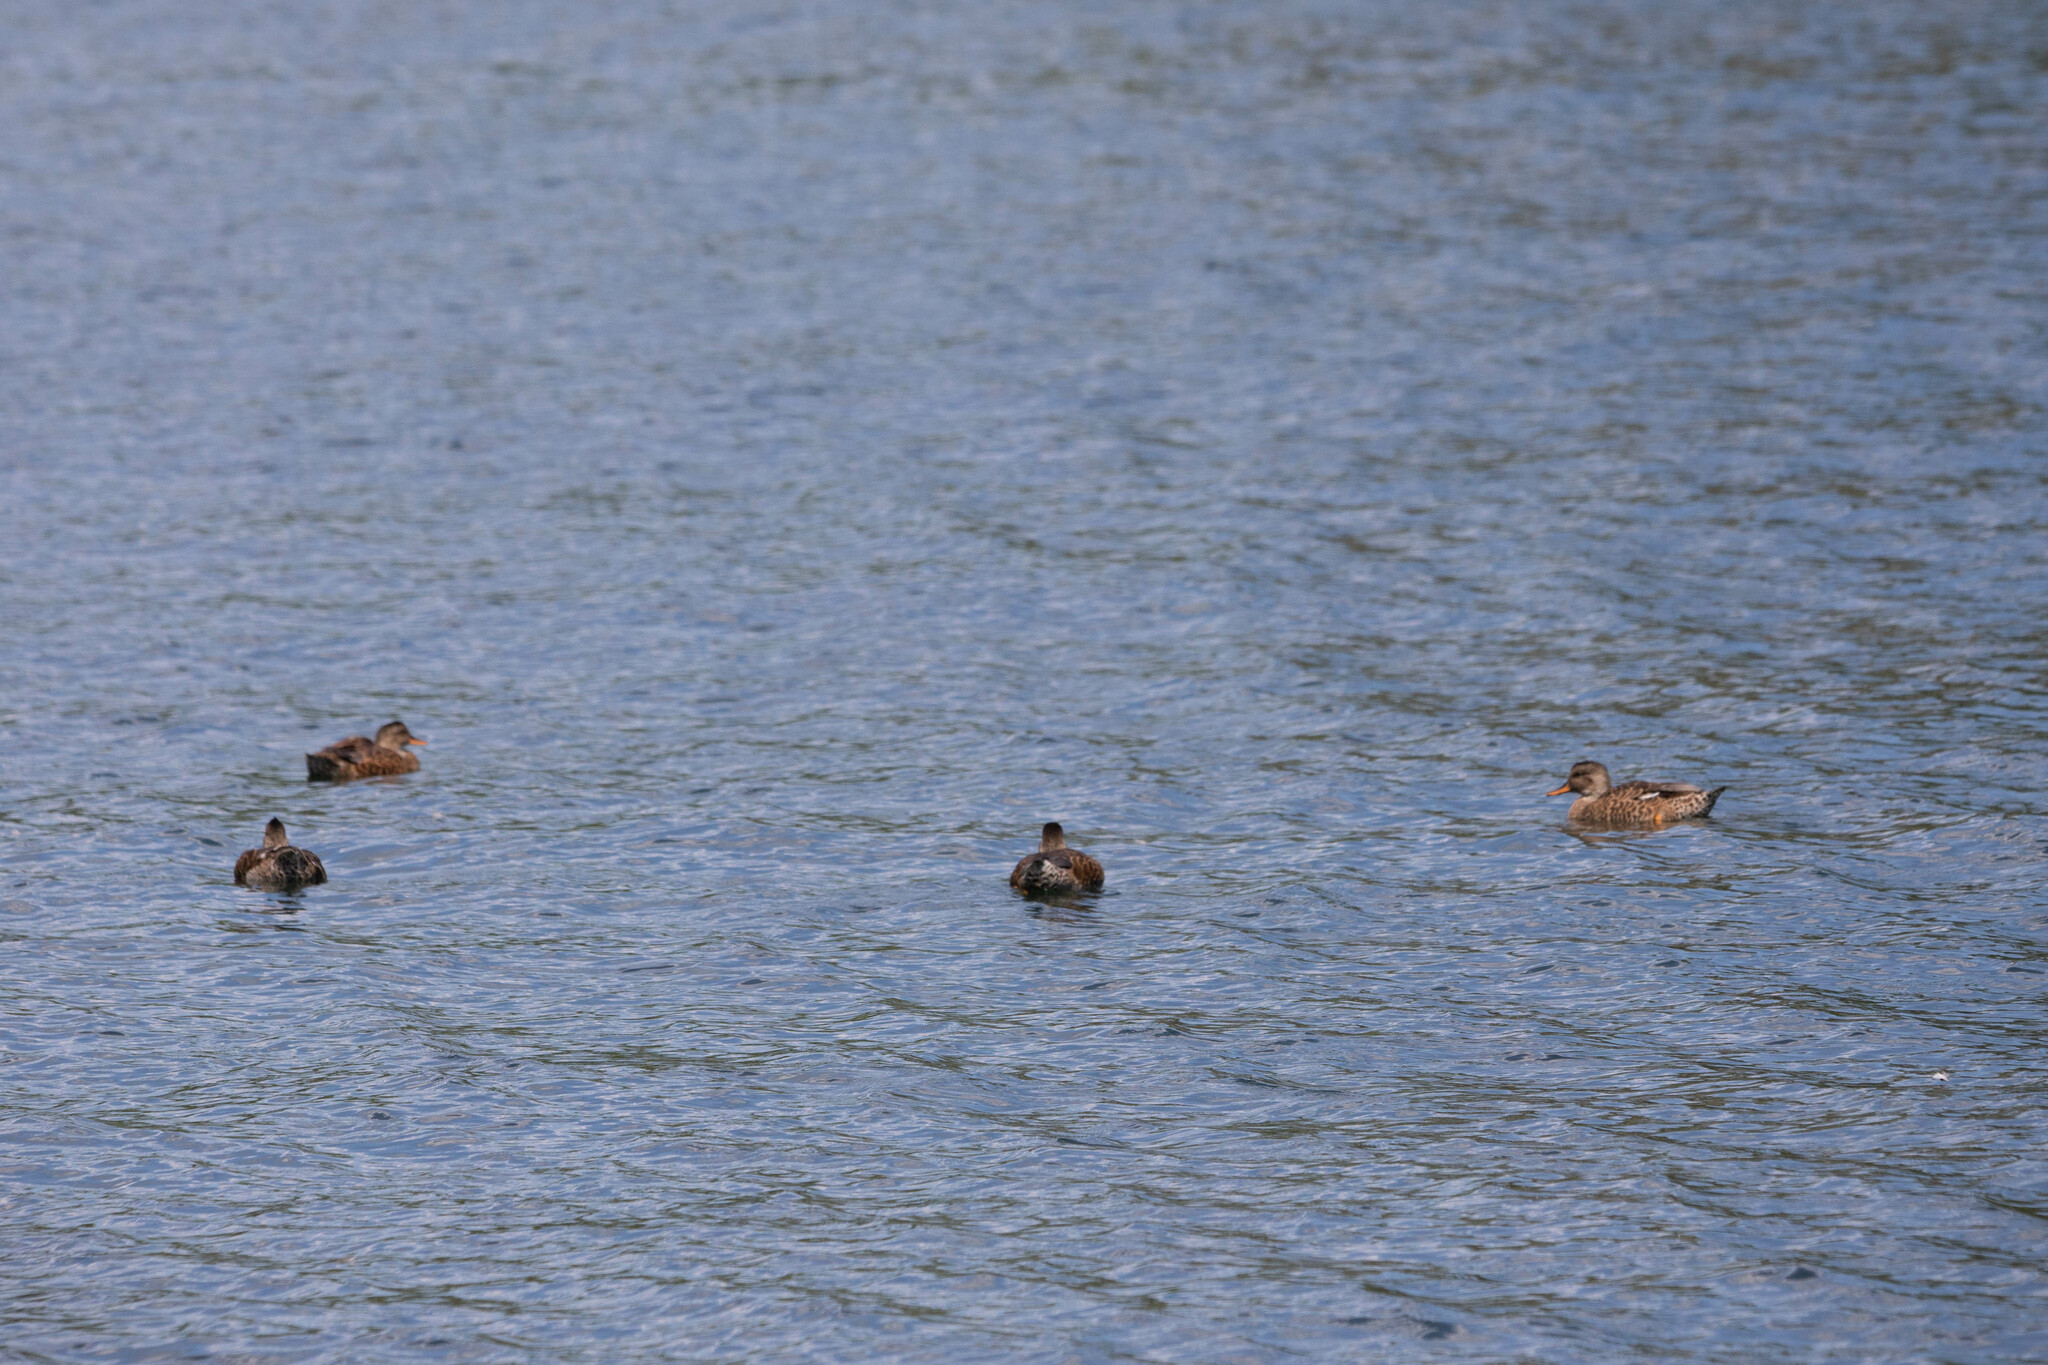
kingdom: Animalia
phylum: Chordata
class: Aves
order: Anseriformes
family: Anatidae
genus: Mareca
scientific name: Mareca strepera
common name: Gadwall
